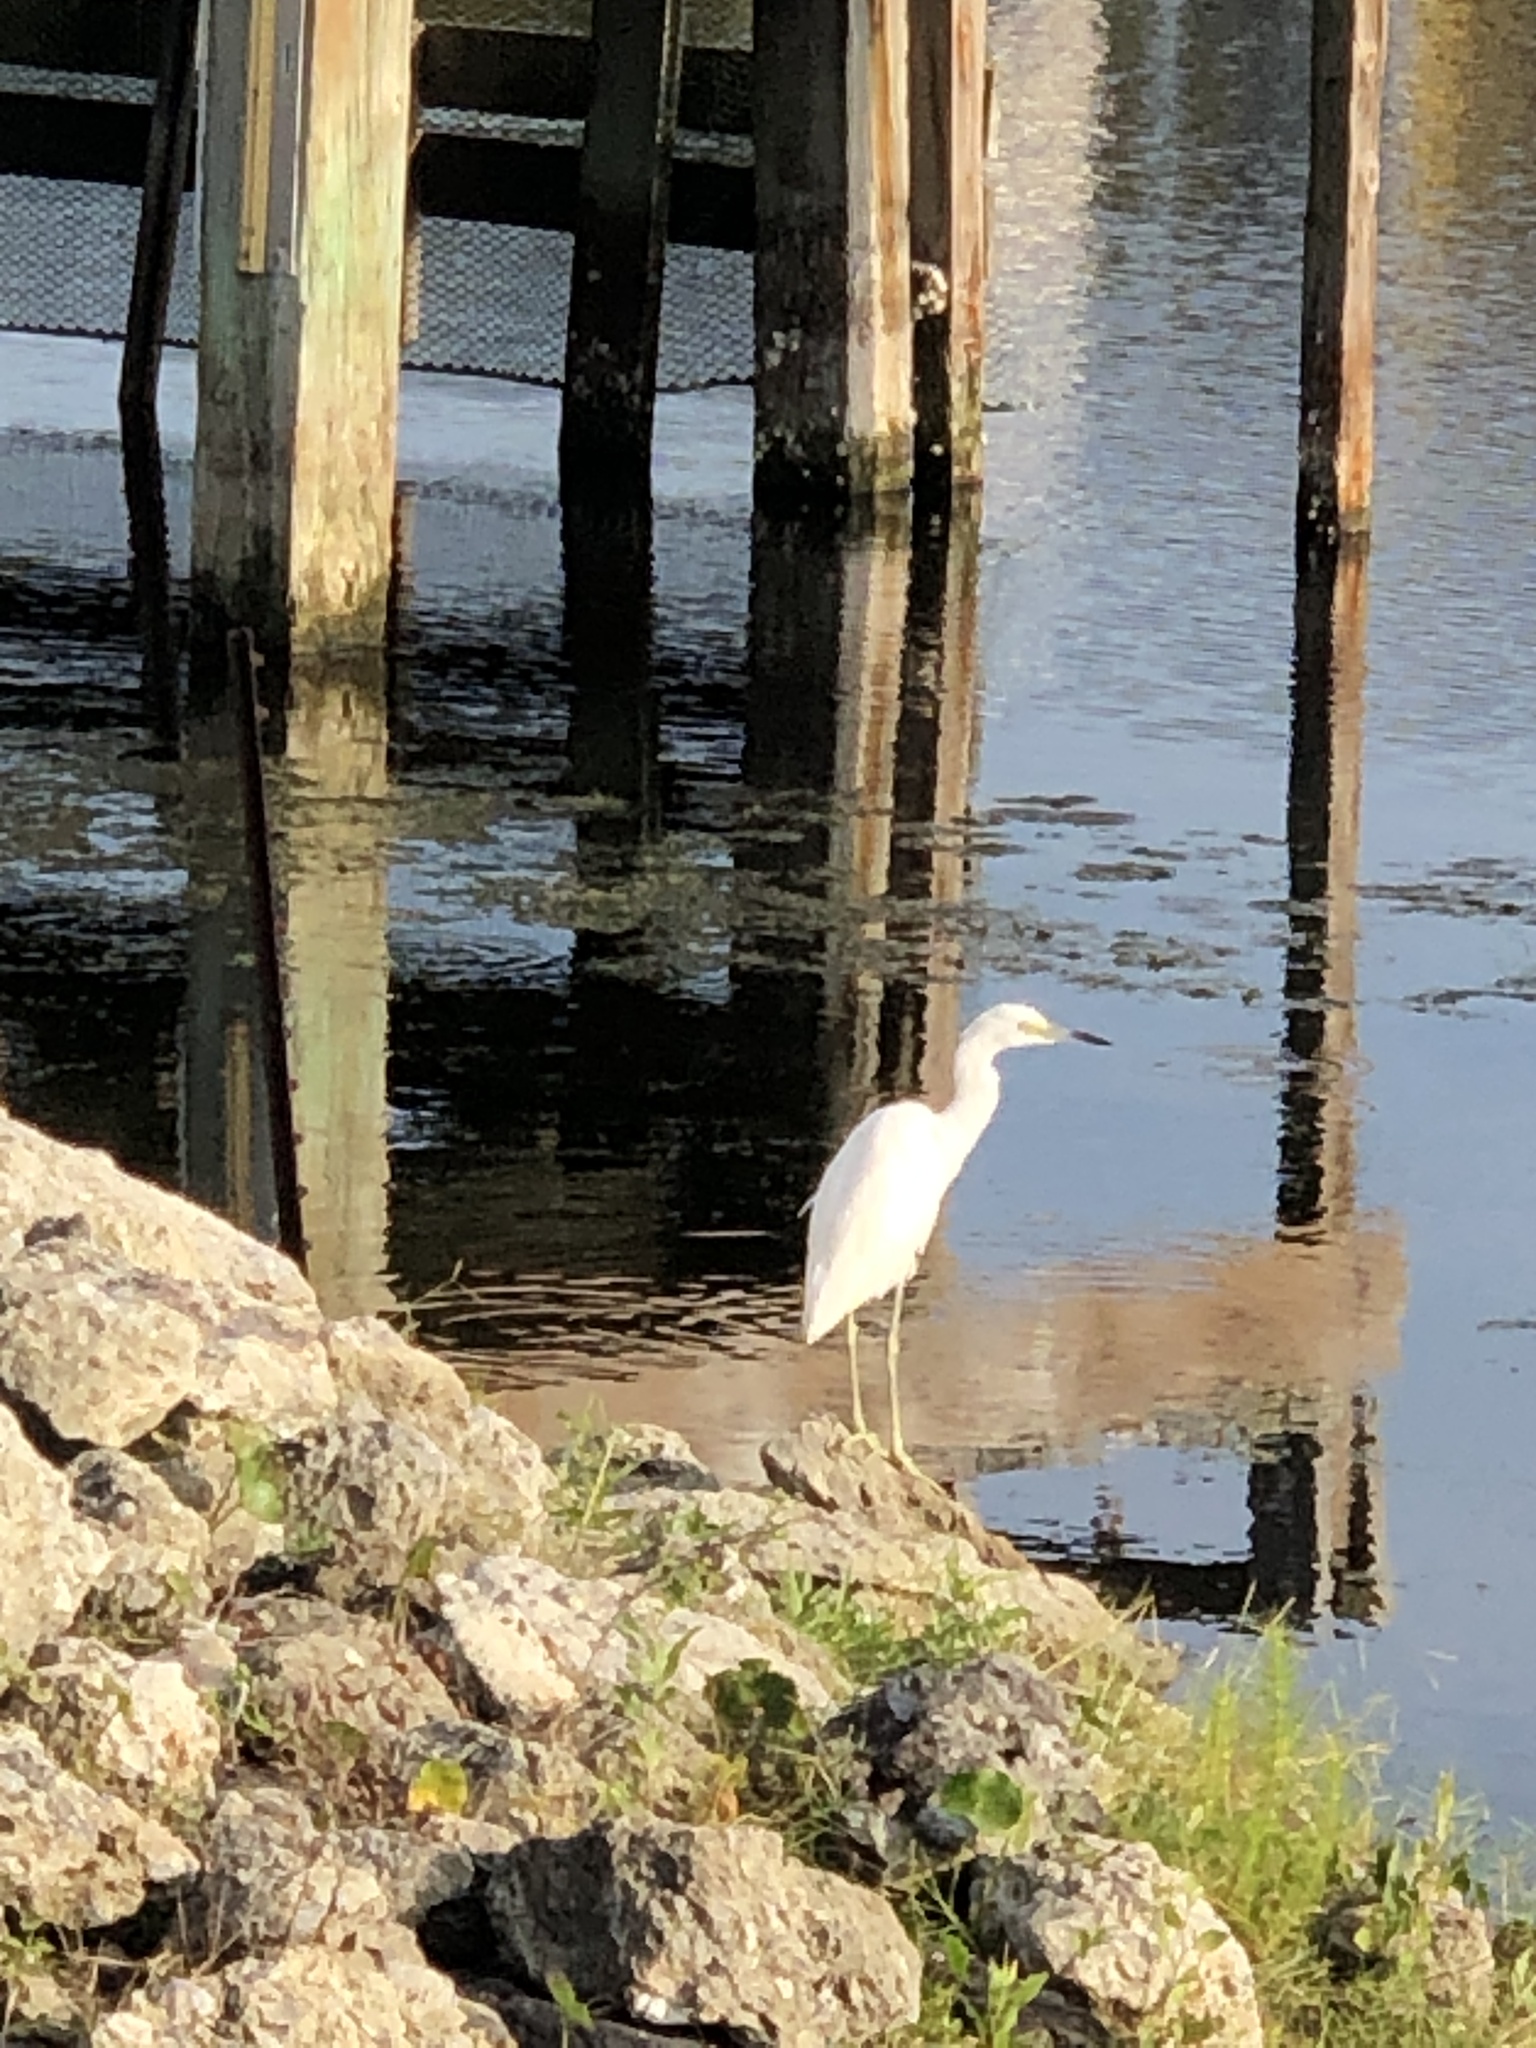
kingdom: Animalia
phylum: Chordata
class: Aves
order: Pelecaniformes
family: Ardeidae
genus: Egretta
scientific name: Egretta caerulea
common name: Little blue heron
